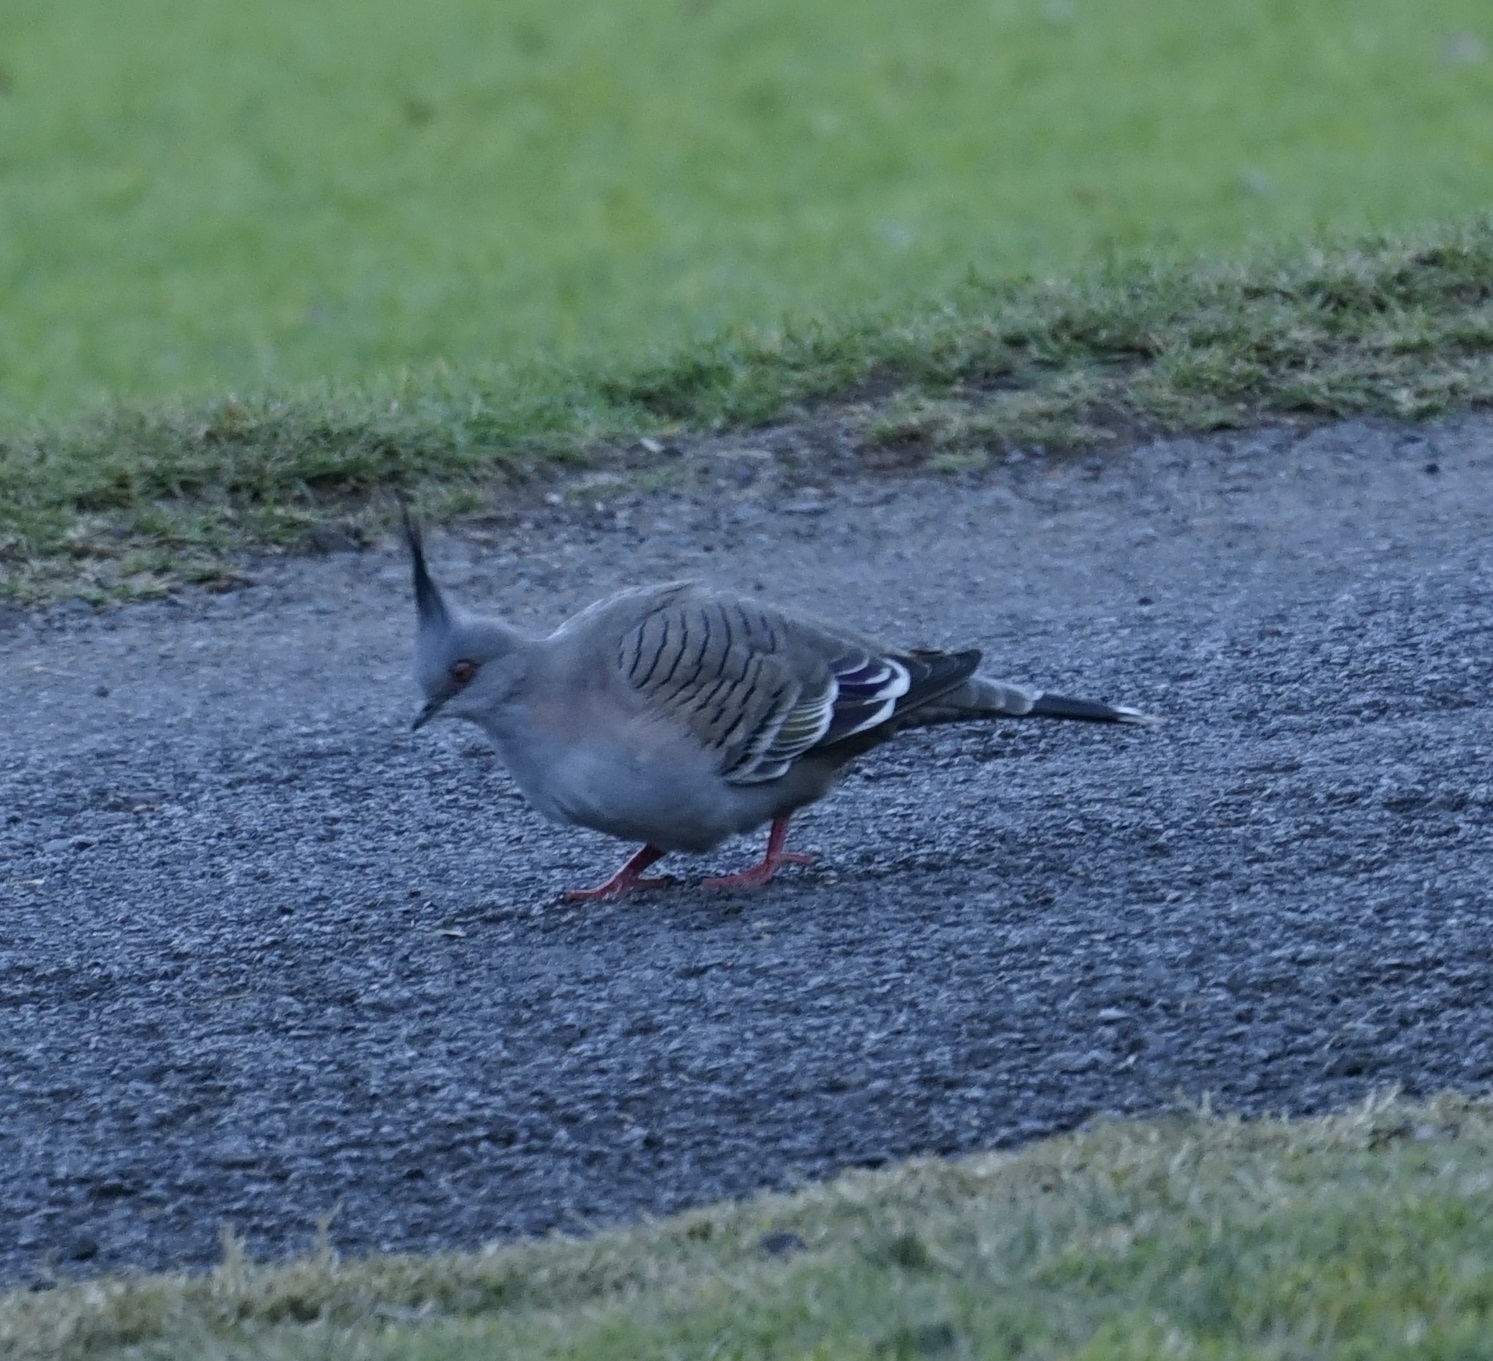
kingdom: Animalia
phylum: Chordata
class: Aves
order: Columbiformes
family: Columbidae
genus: Ocyphaps
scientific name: Ocyphaps lophotes
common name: Crested pigeon
